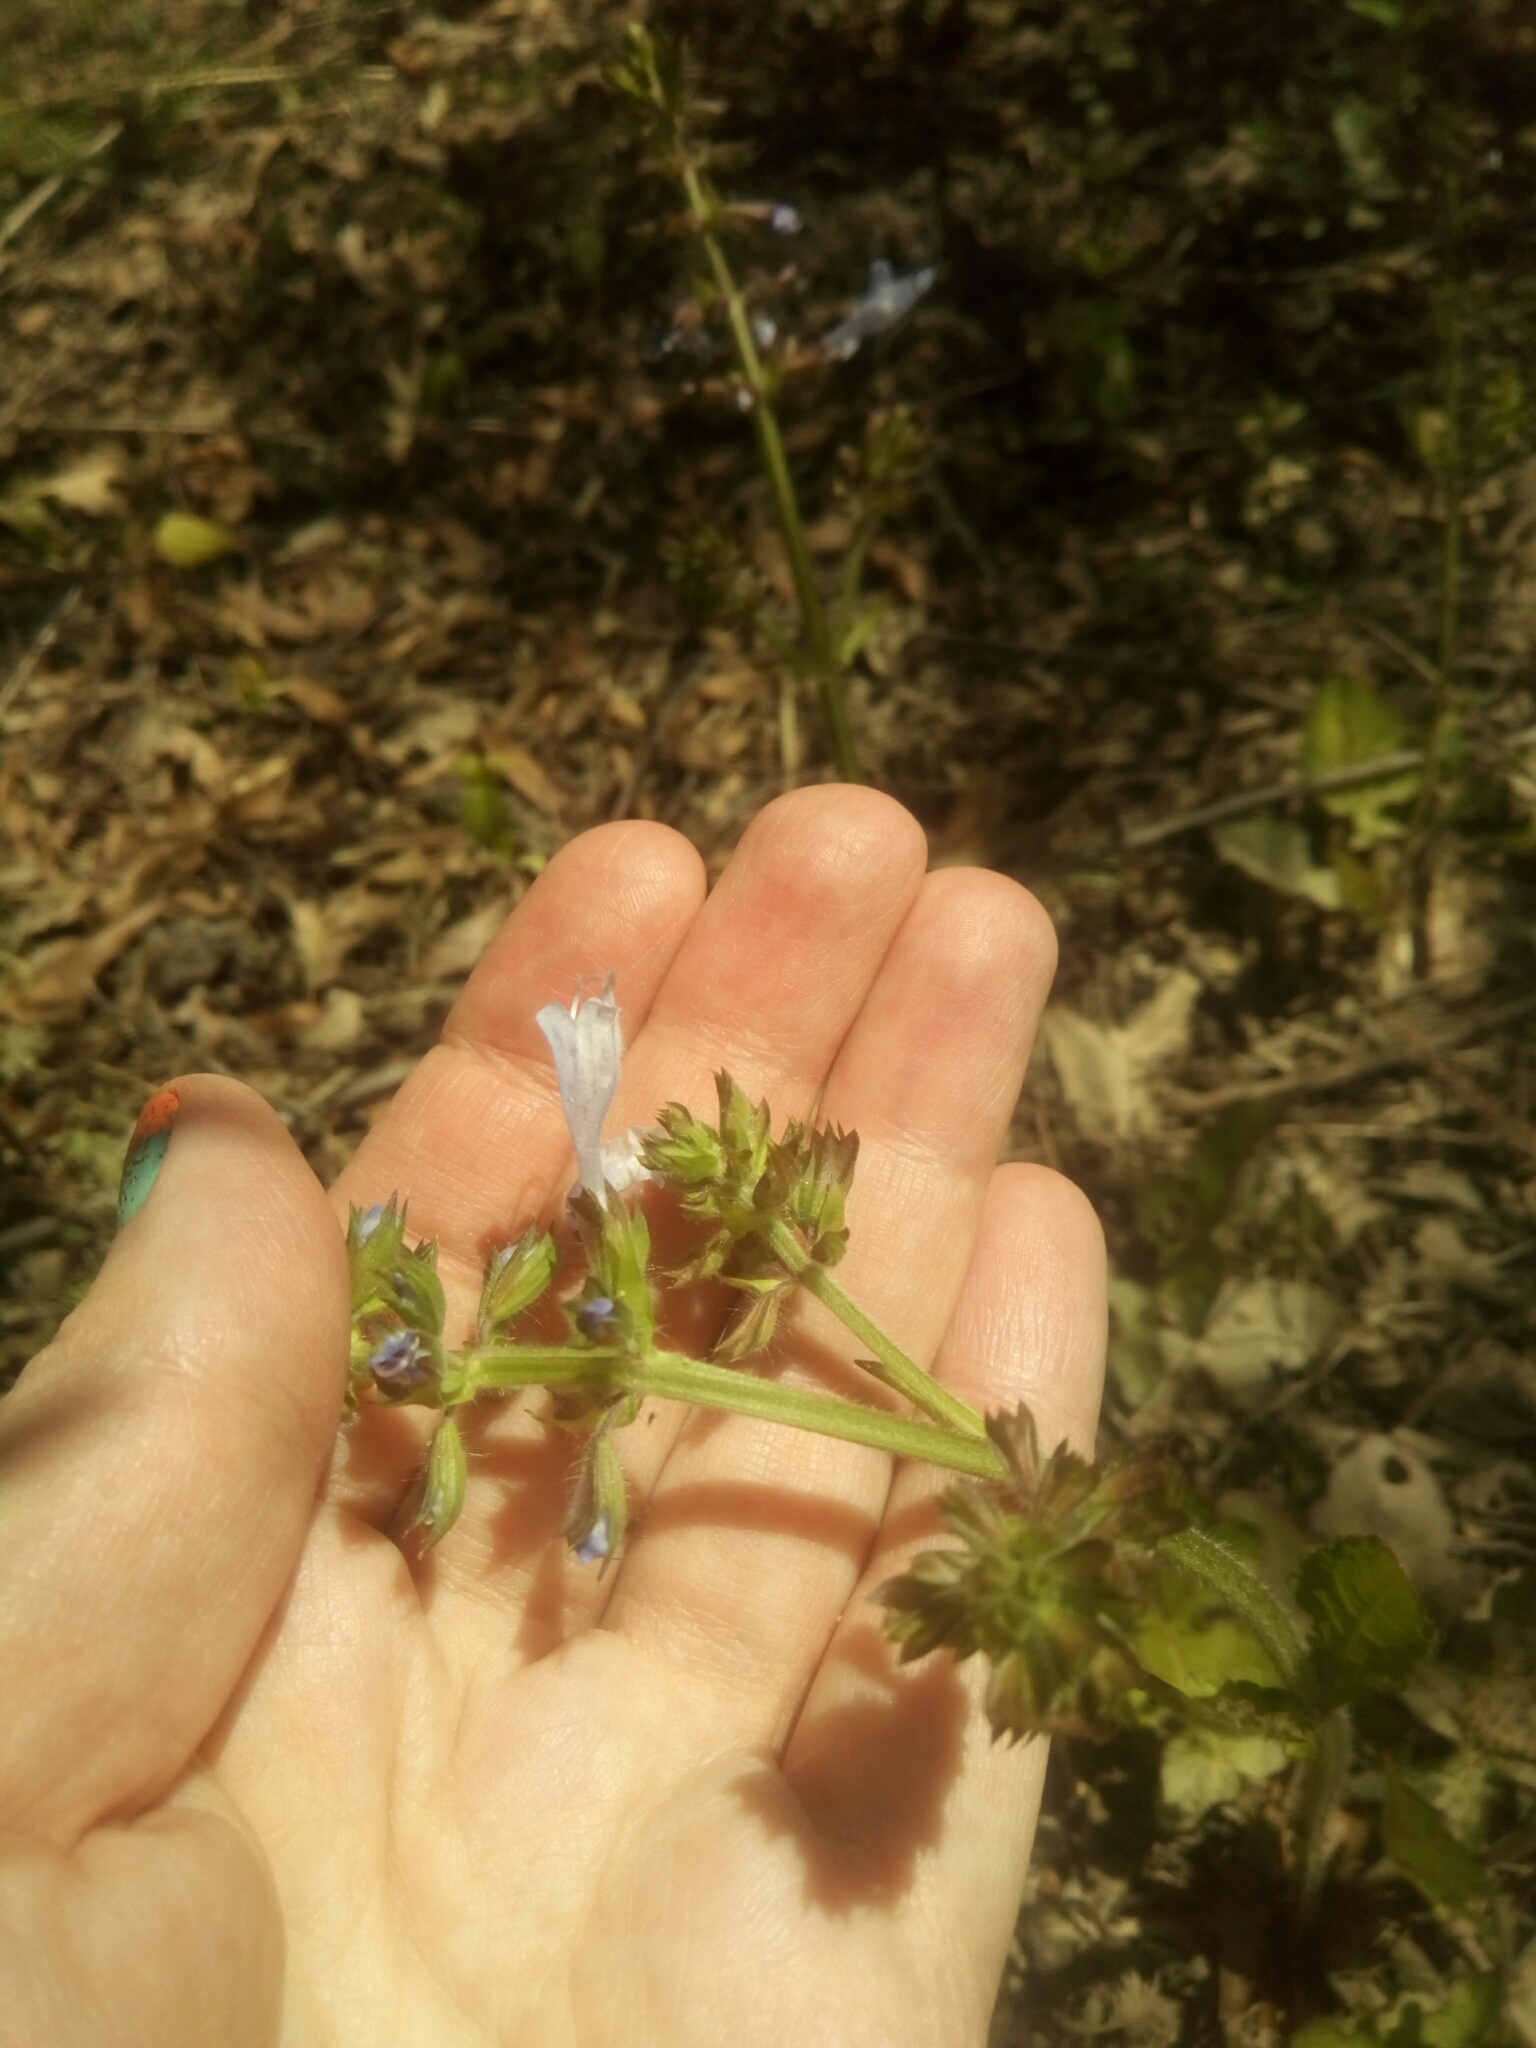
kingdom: Plantae
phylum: Tracheophyta
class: Magnoliopsida
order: Lamiales
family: Lamiaceae
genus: Salvia
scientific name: Salvia lyrata
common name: Cancerweed
